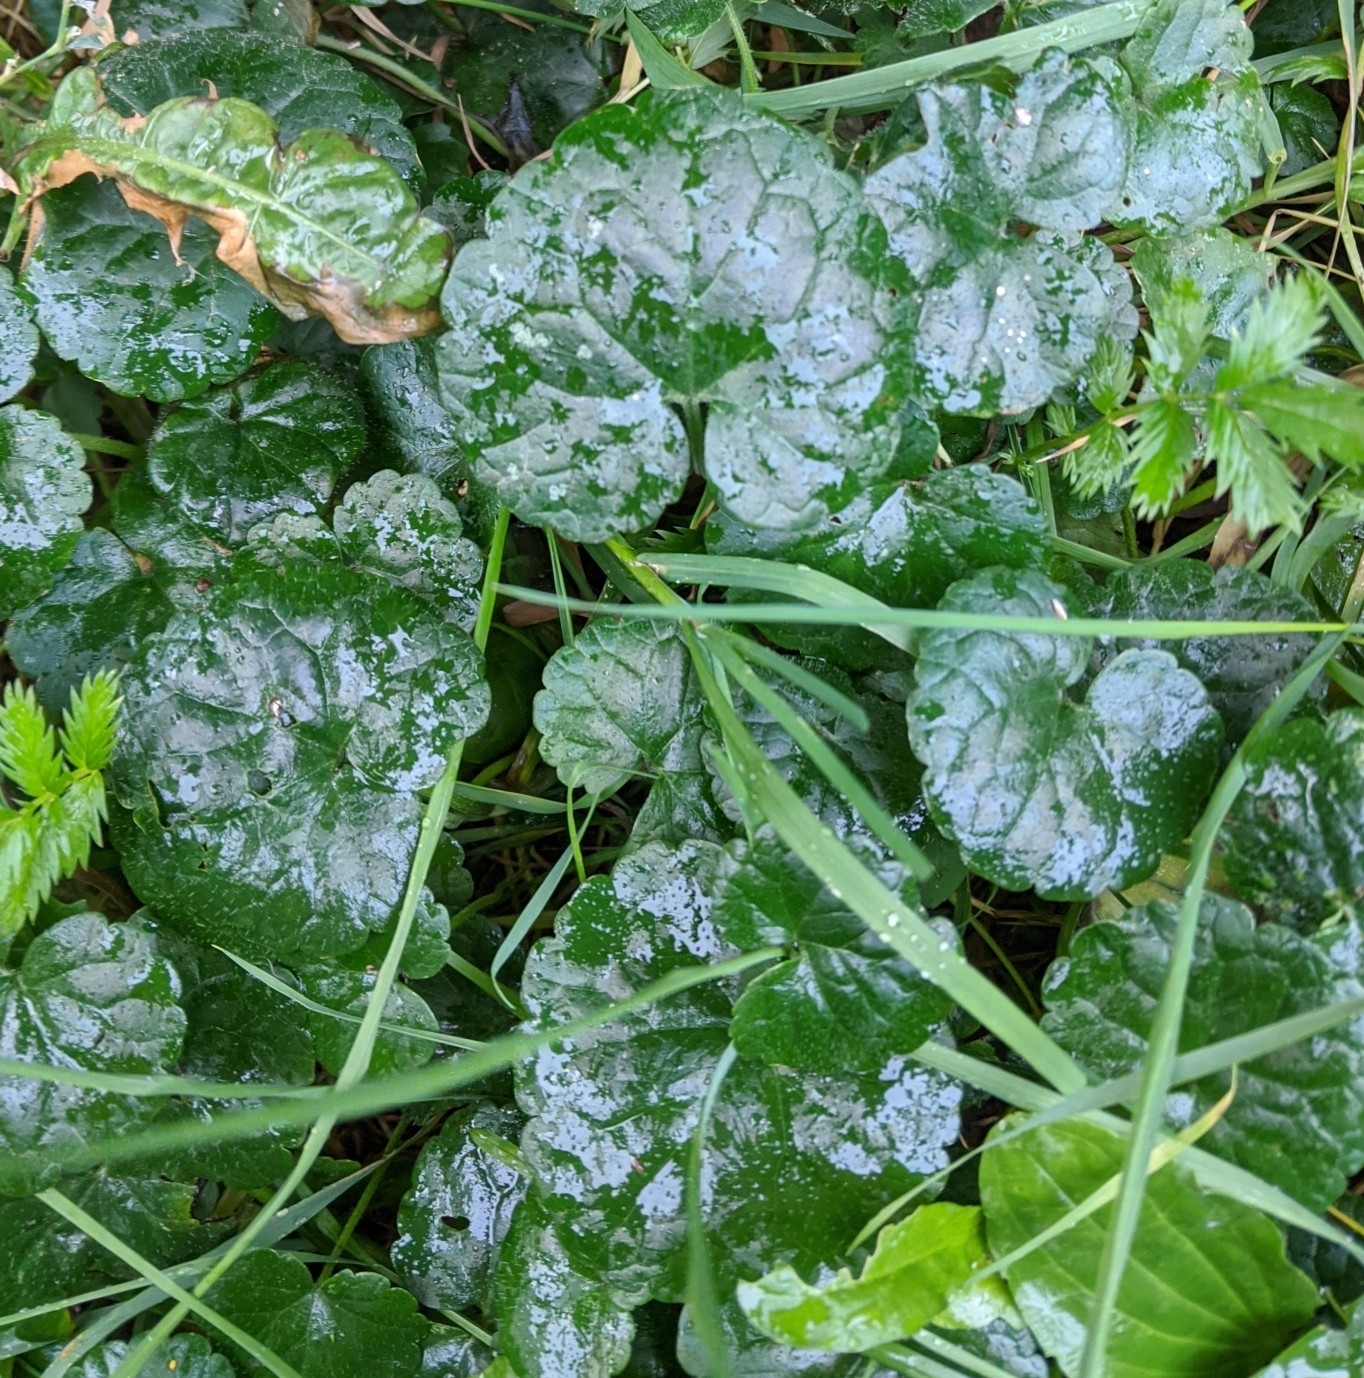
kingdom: Plantae
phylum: Tracheophyta
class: Magnoliopsida
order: Lamiales
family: Lamiaceae
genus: Glechoma
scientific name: Glechoma hederacea
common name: Ground ivy
